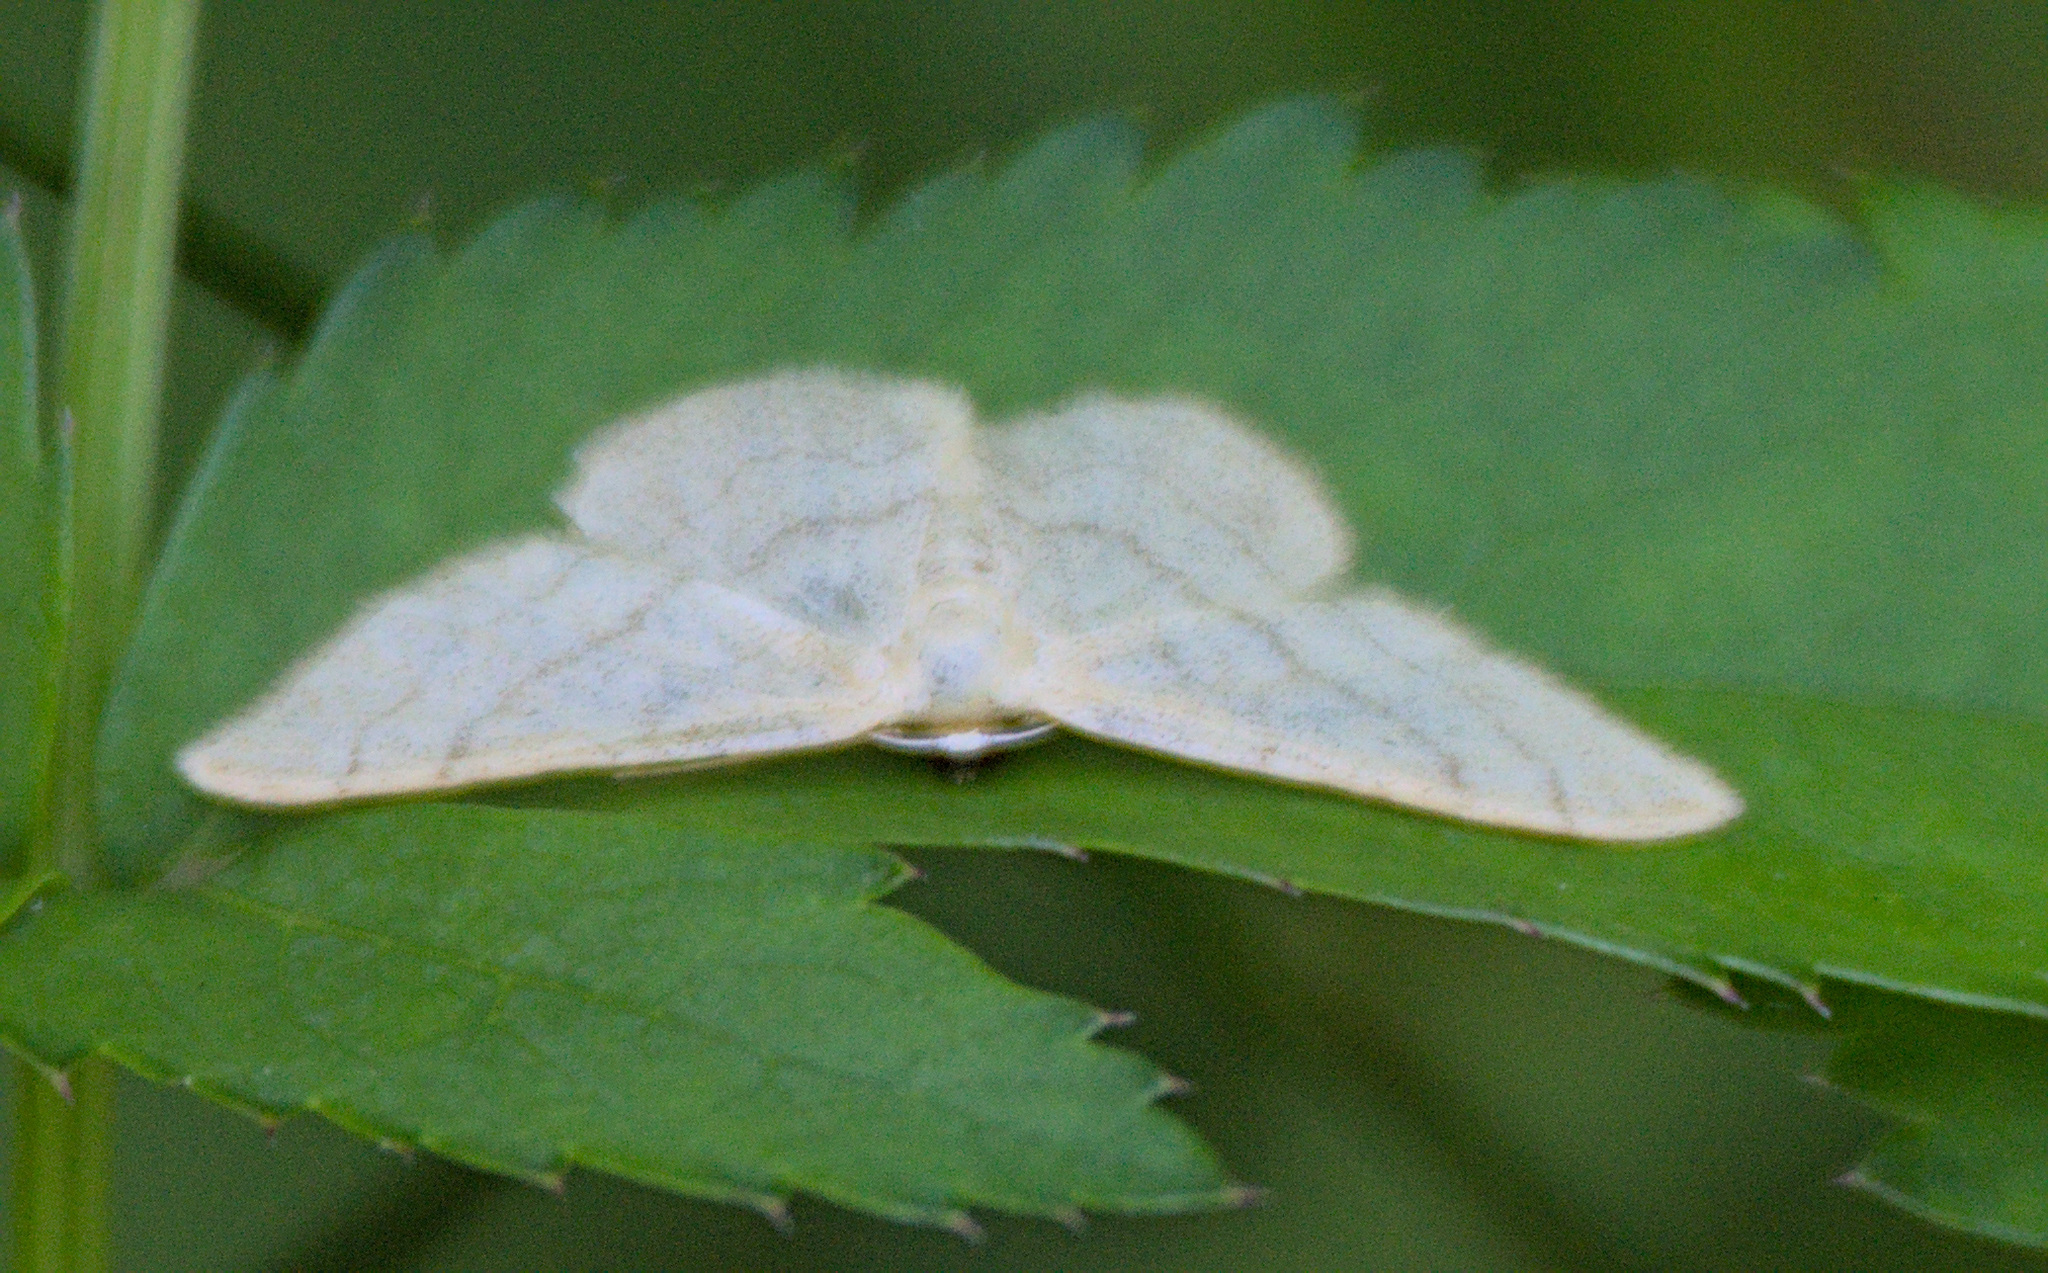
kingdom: Animalia
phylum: Arthropoda
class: Insecta
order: Lepidoptera
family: Geometridae
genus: Idaea
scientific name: Idaea aversata
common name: Riband wave
